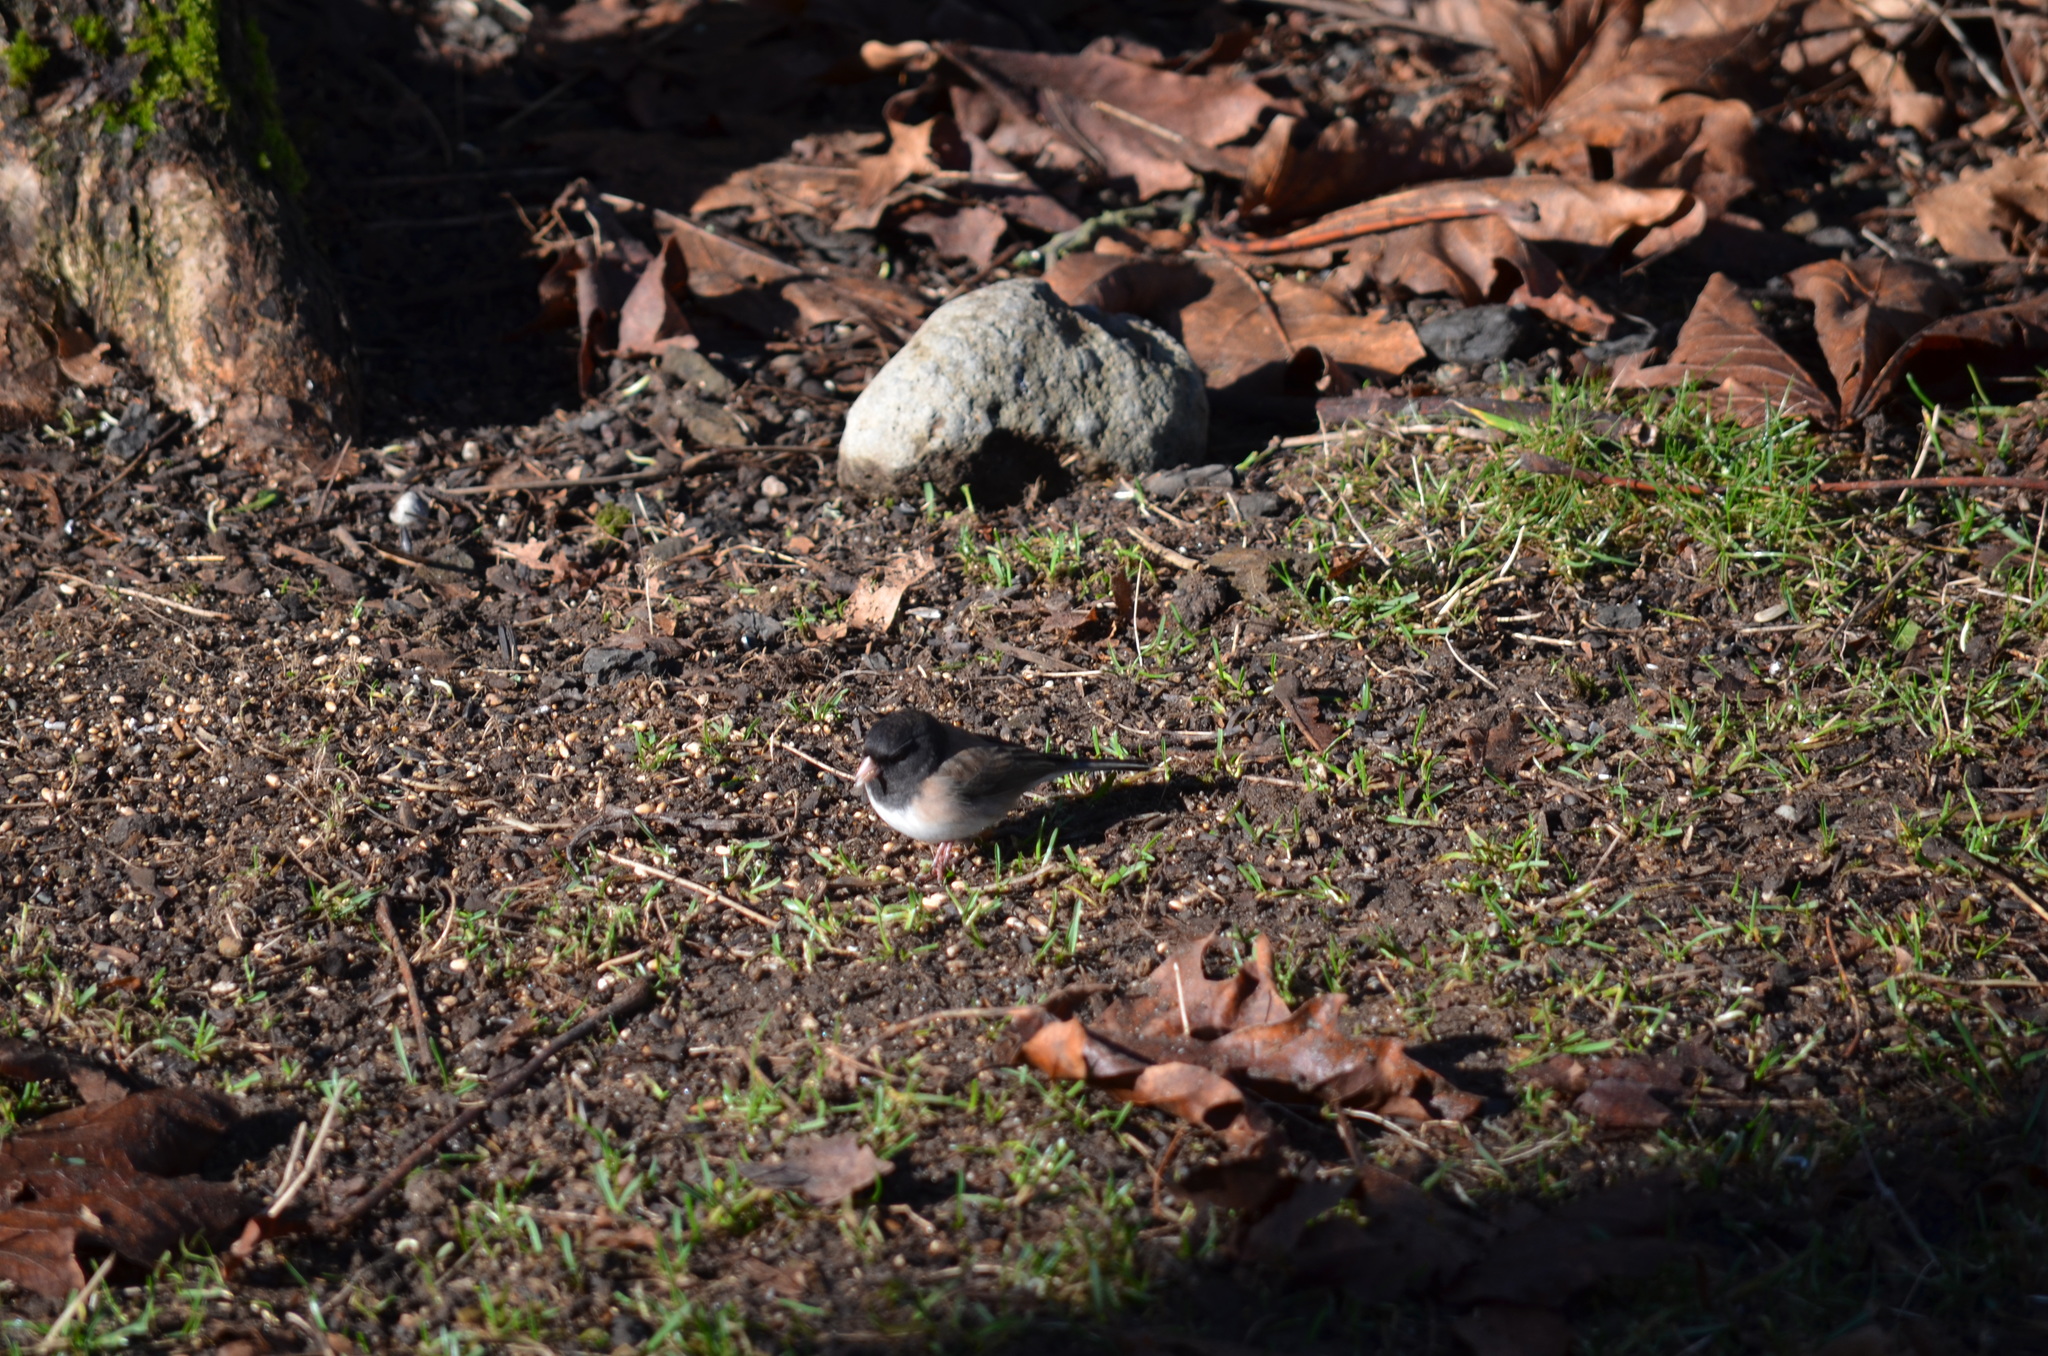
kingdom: Animalia
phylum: Chordata
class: Aves
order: Passeriformes
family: Passerellidae
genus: Junco
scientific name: Junco hyemalis
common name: Dark-eyed junco
